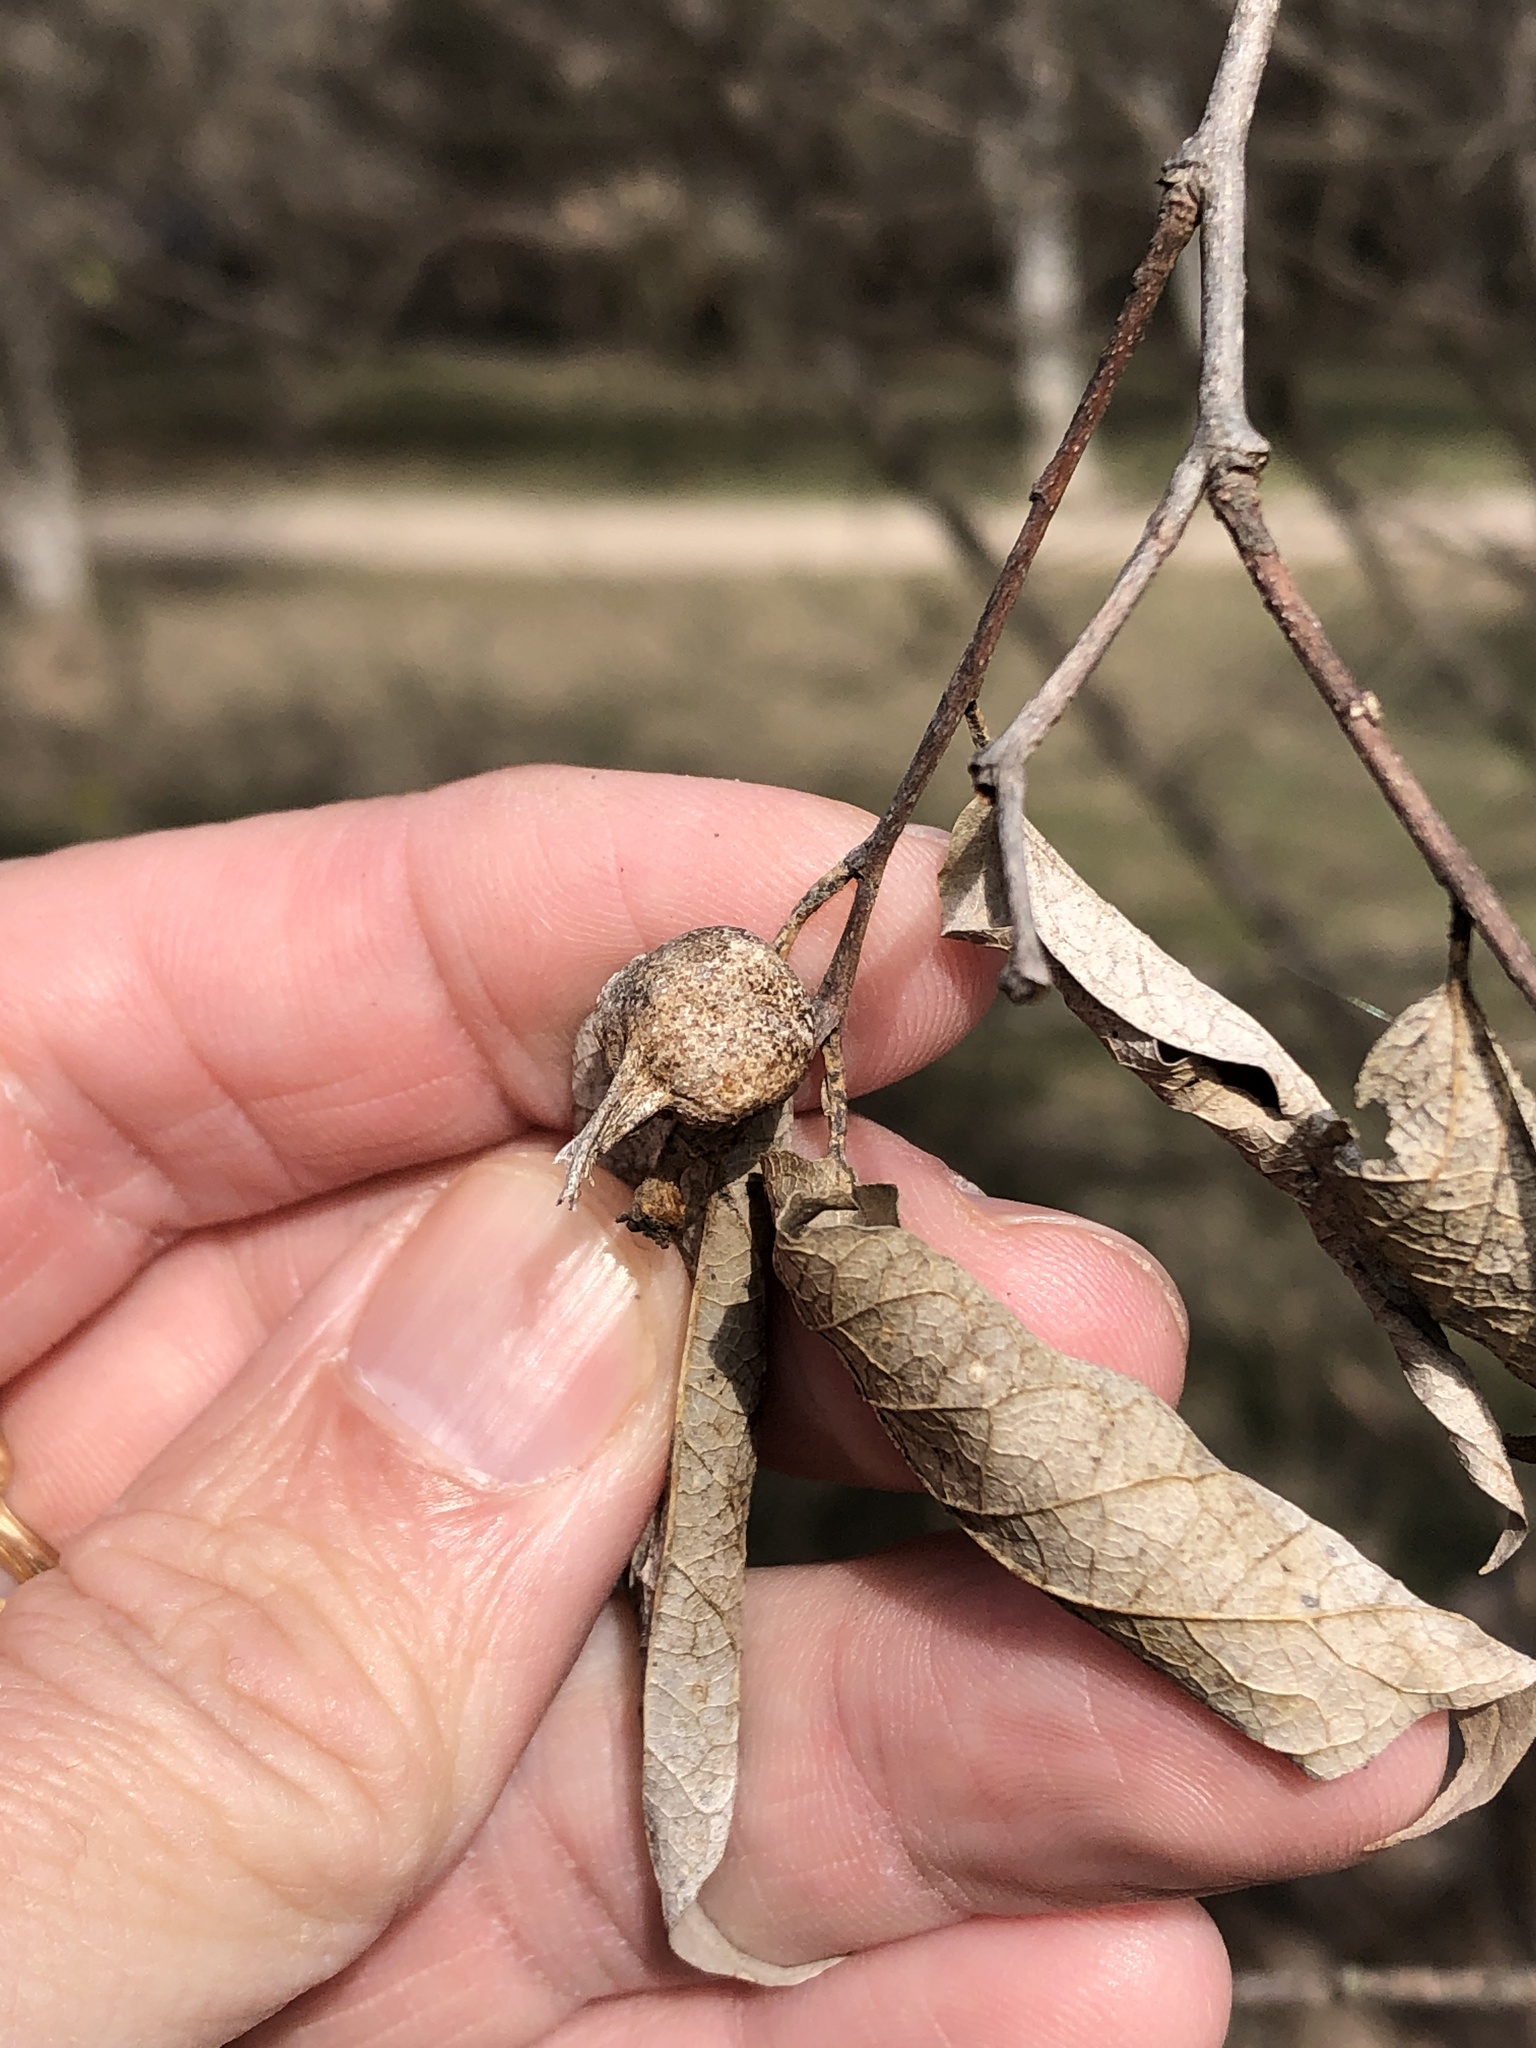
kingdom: Animalia
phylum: Arthropoda
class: Insecta
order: Hemiptera
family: Aphalaridae
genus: Pachypsylla
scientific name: Pachypsylla venusta
